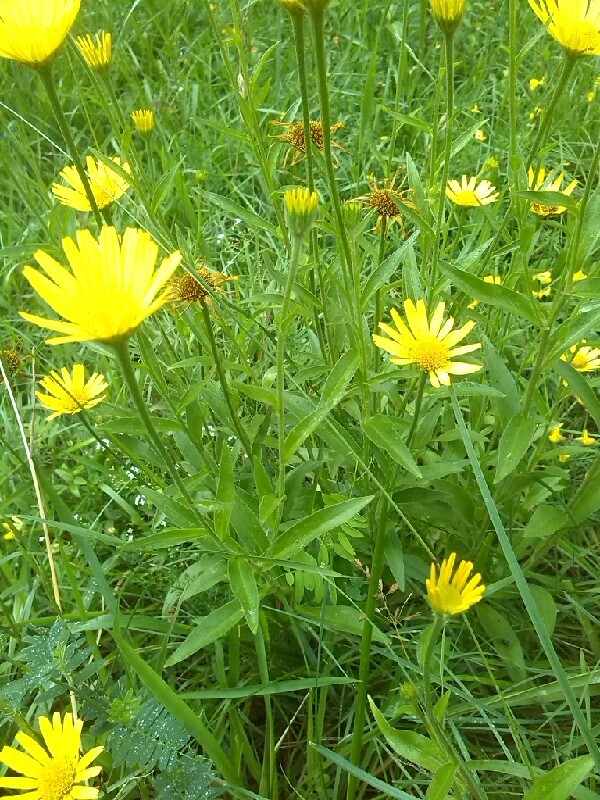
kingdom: Plantae
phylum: Tracheophyta
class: Magnoliopsida
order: Asterales
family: Asteraceae
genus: Buphthalmum
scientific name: Buphthalmum salicifolium
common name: Willow-leaved yellow-oxeye
